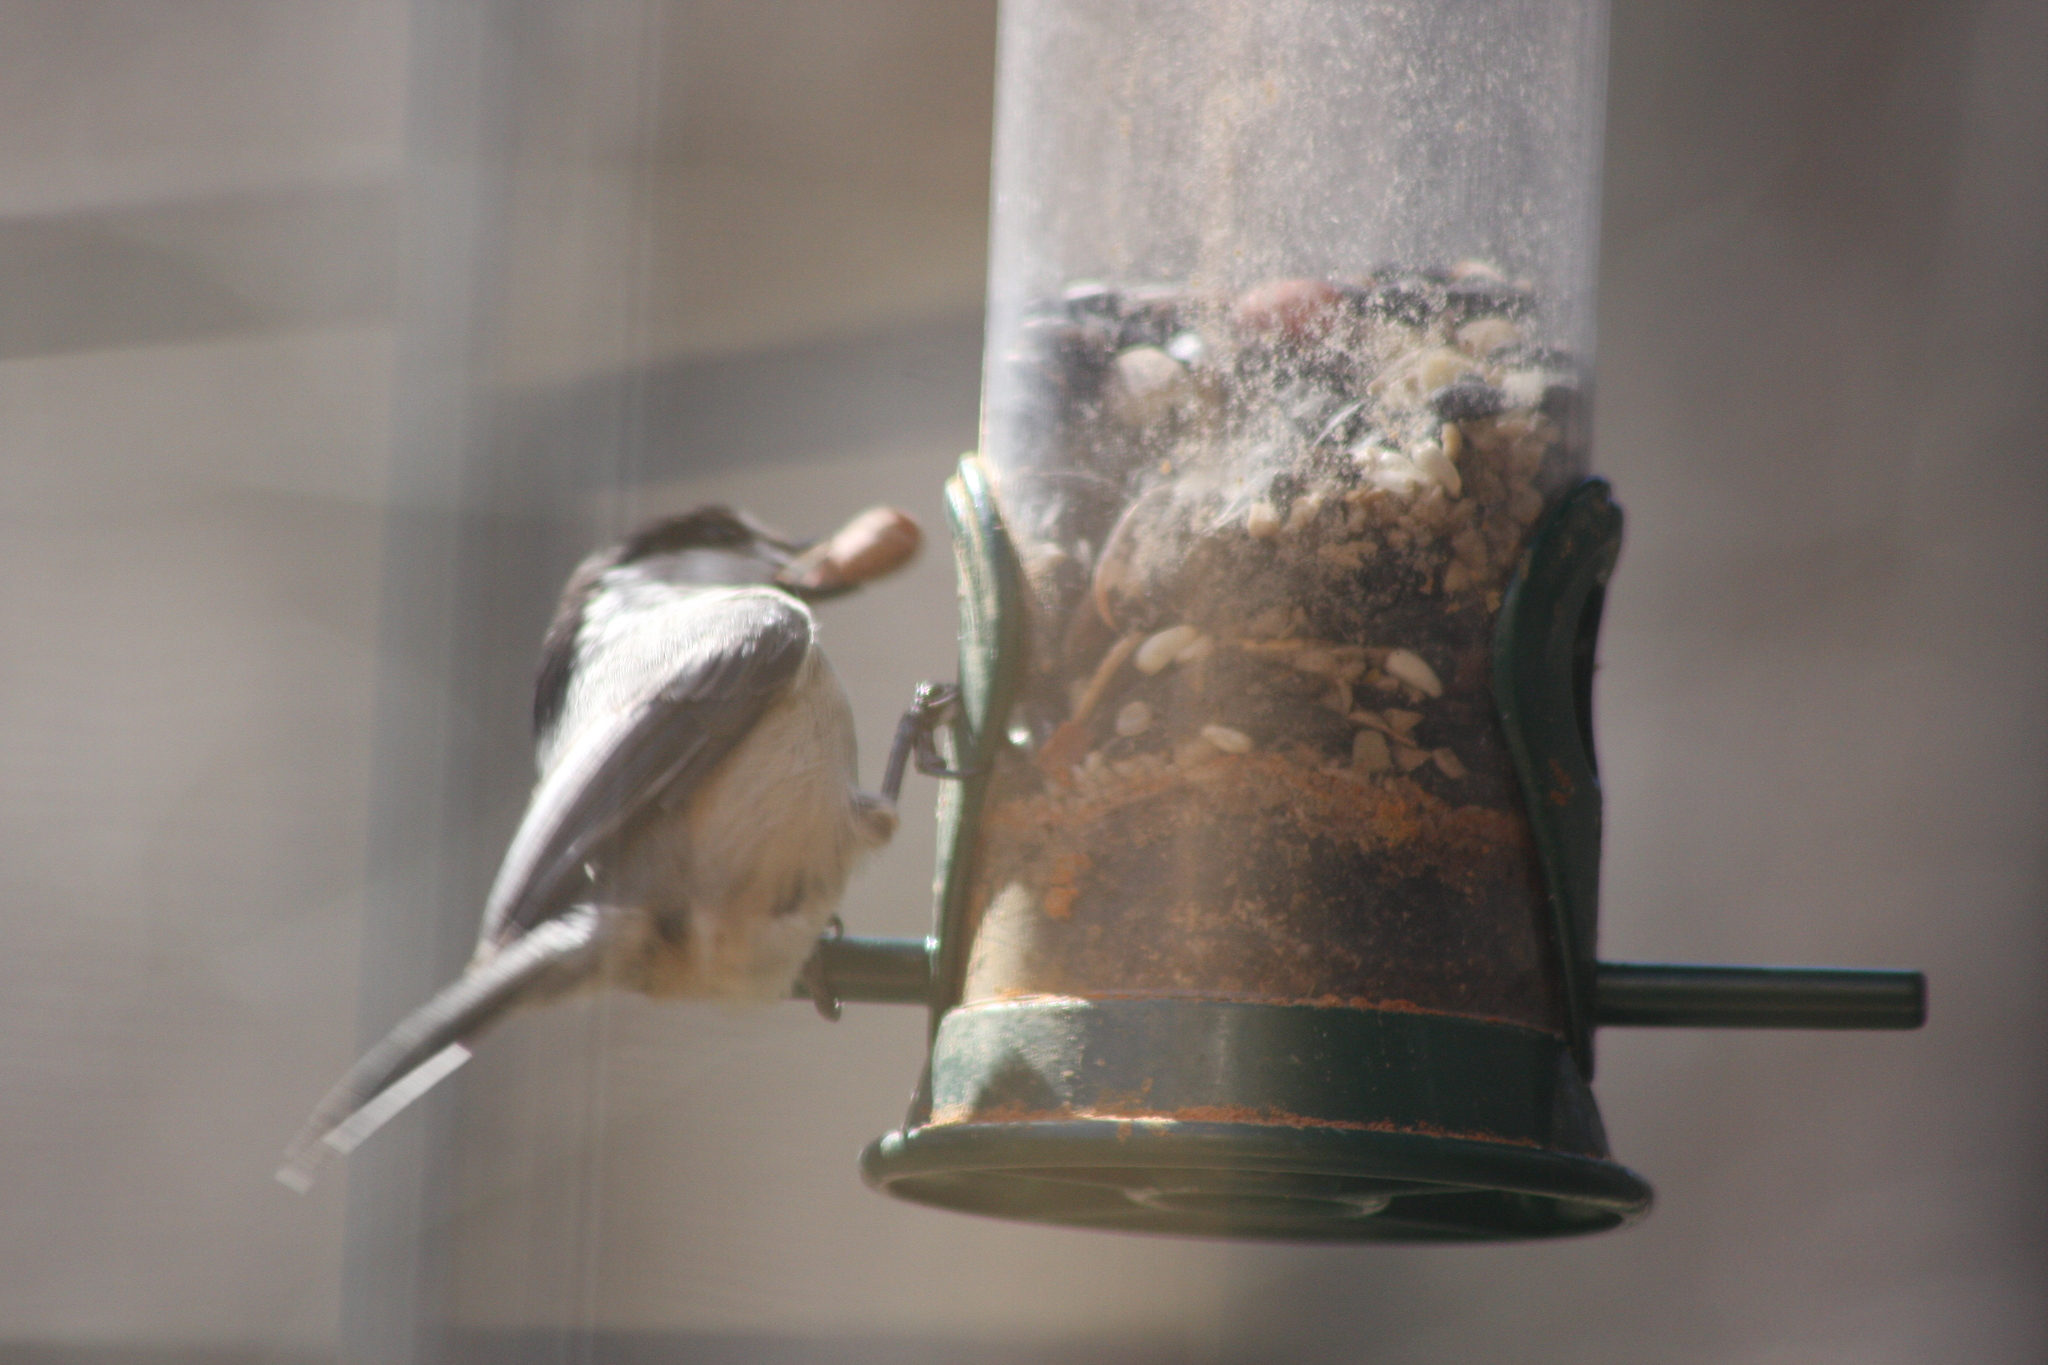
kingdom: Animalia
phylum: Chordata
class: Aves
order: Passeriformes
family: Paridae
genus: Poecile
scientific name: Poecile atricapillus
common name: Black-capped chickadee
